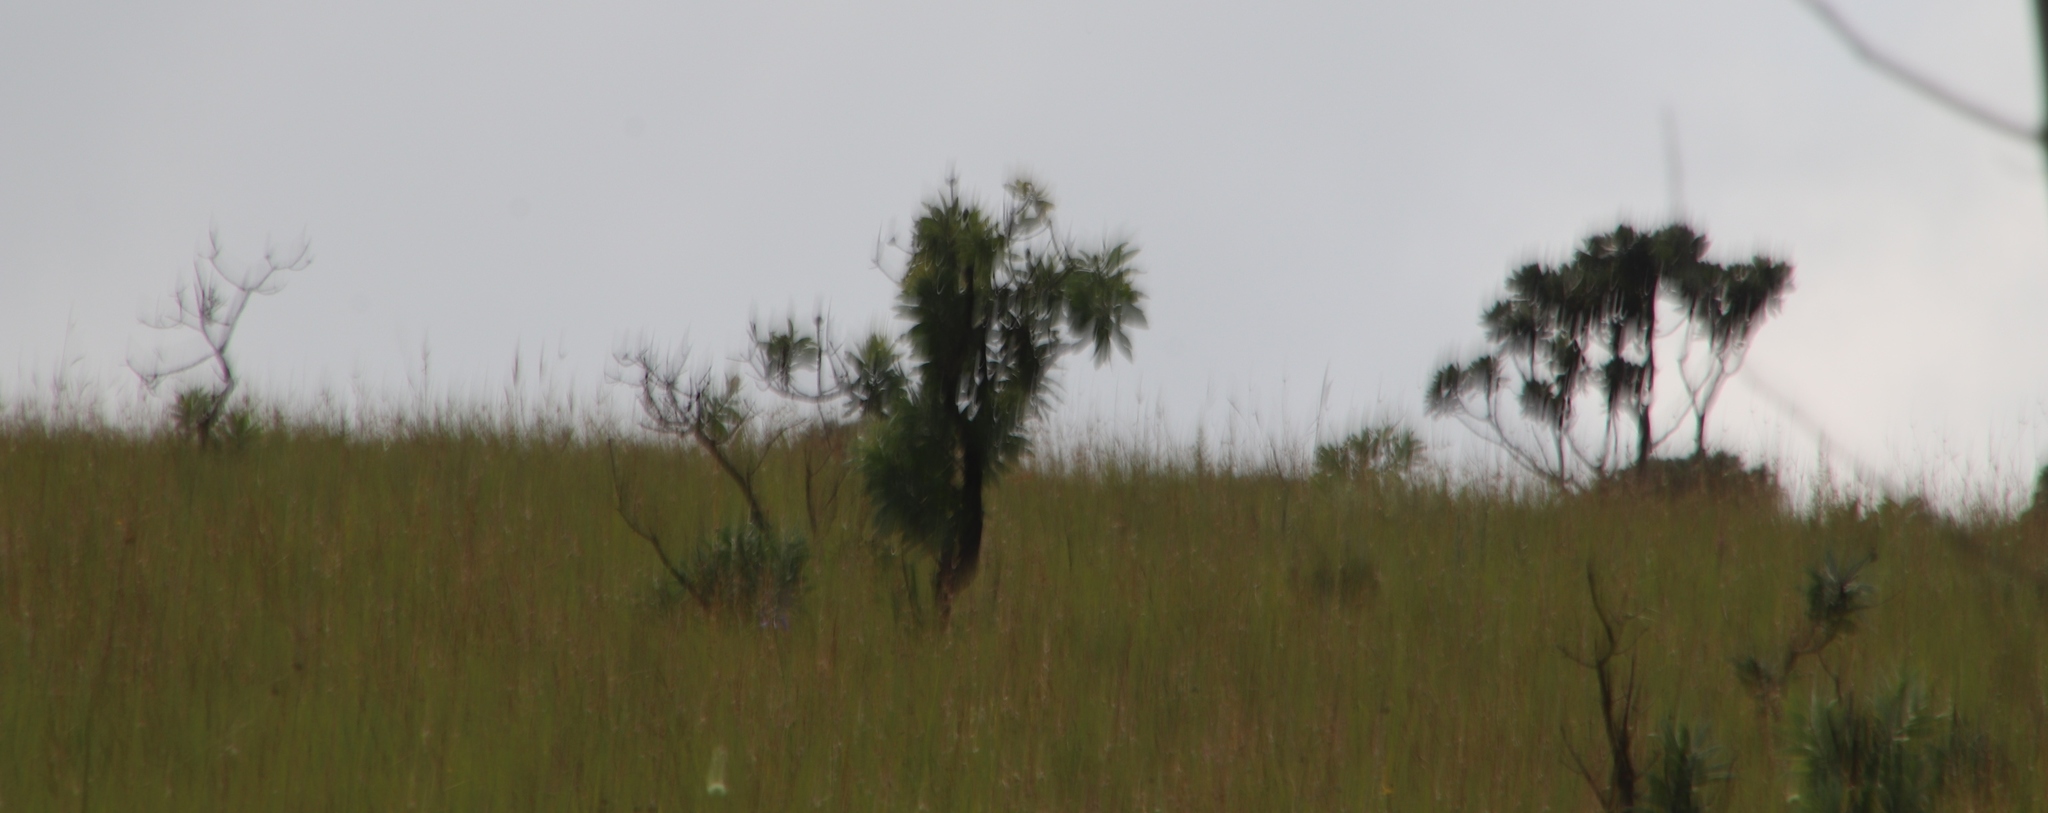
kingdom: Plantae
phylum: Tracheophyta
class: Magnoliopsida
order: Proteales
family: Proteaceae
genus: Protea
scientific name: Protea caffra
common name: Common sugarbush
